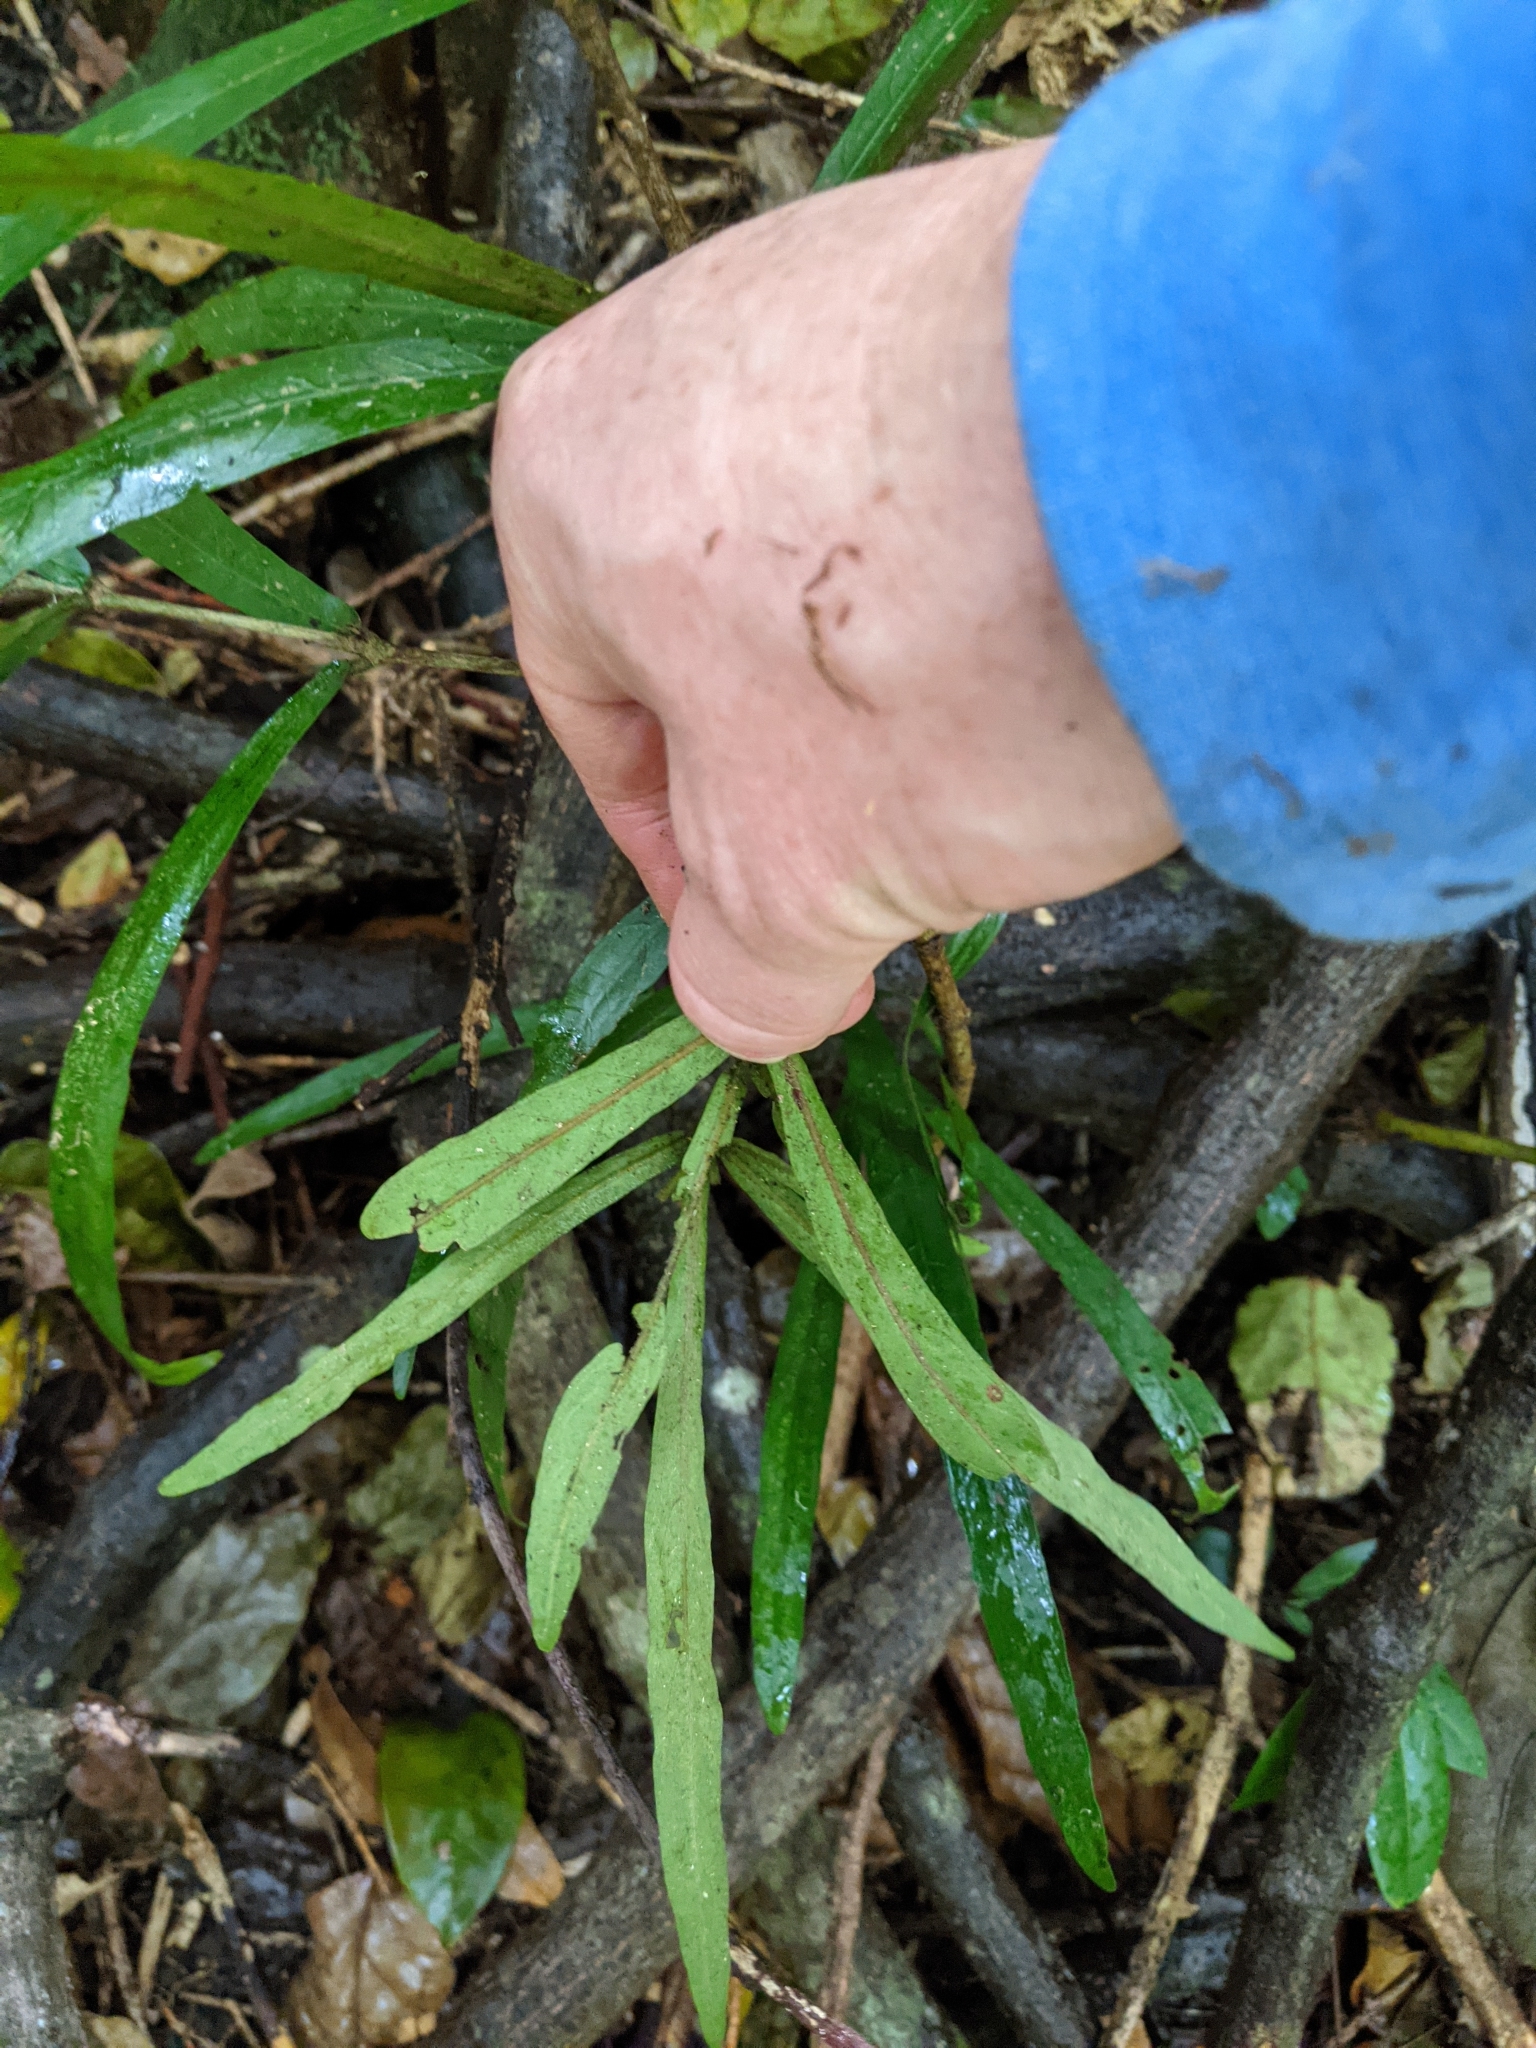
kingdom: Plantae
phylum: Tracheophyta
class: Magnoliopsida
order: Gentianales
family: Rubiaceae
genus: Atractocarpus
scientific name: Atractocarpus chartaceus
